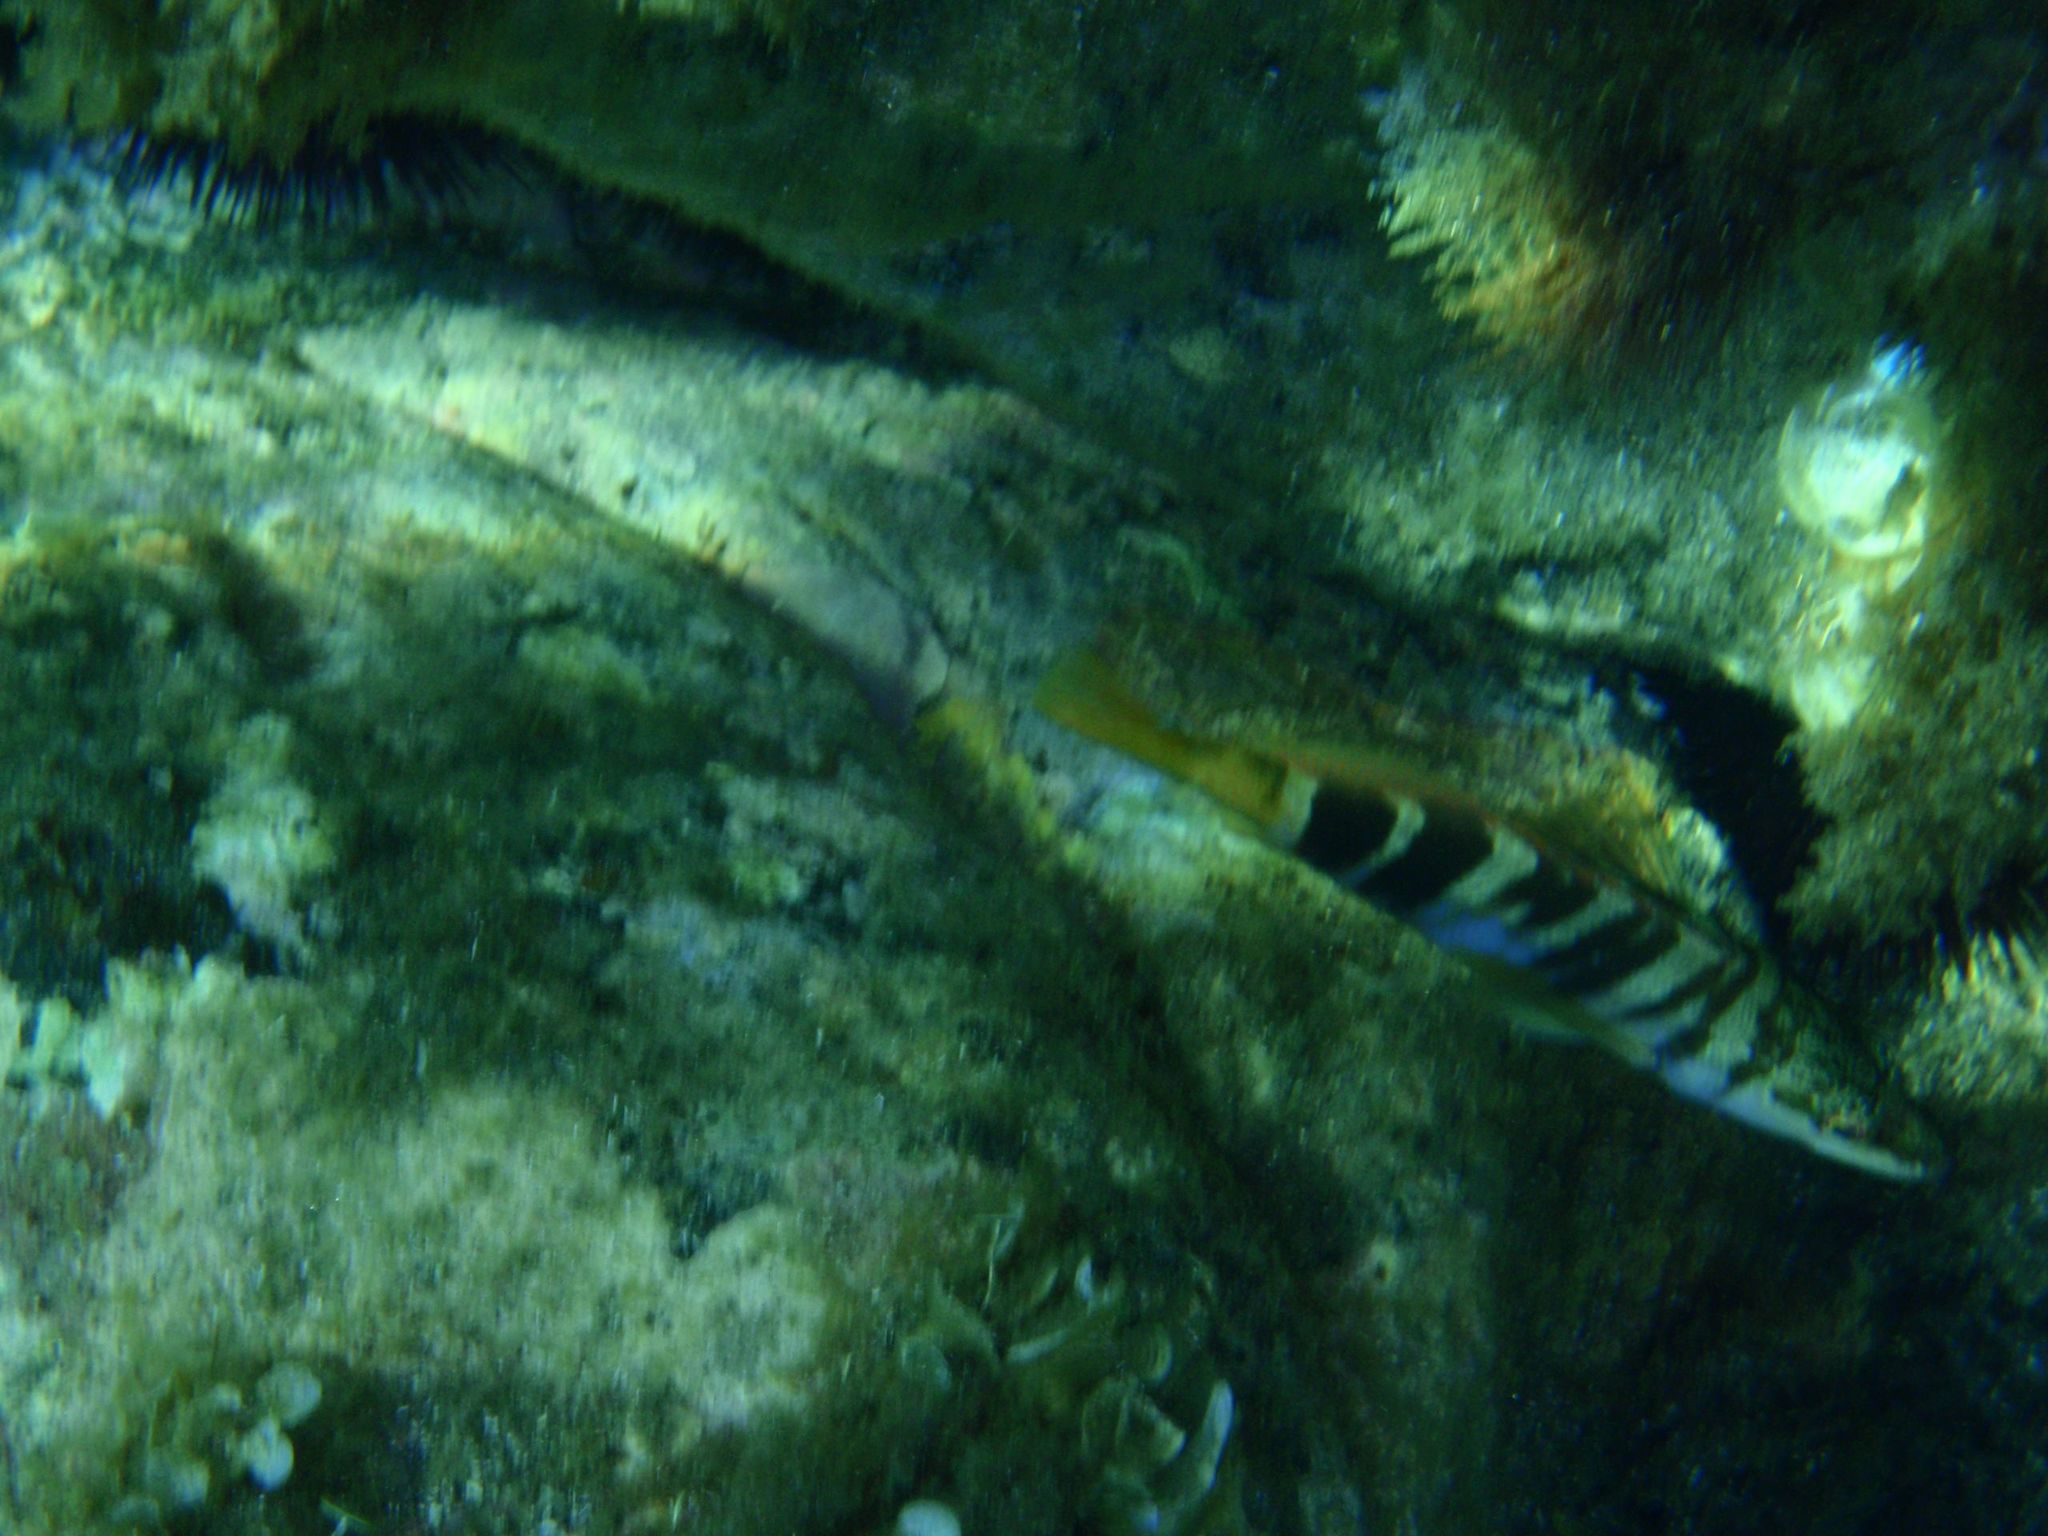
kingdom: Animalia
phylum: Chordata
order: Perciformes
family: Serranidae
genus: Serranus
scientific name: Serranus scriba
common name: Painted comber
